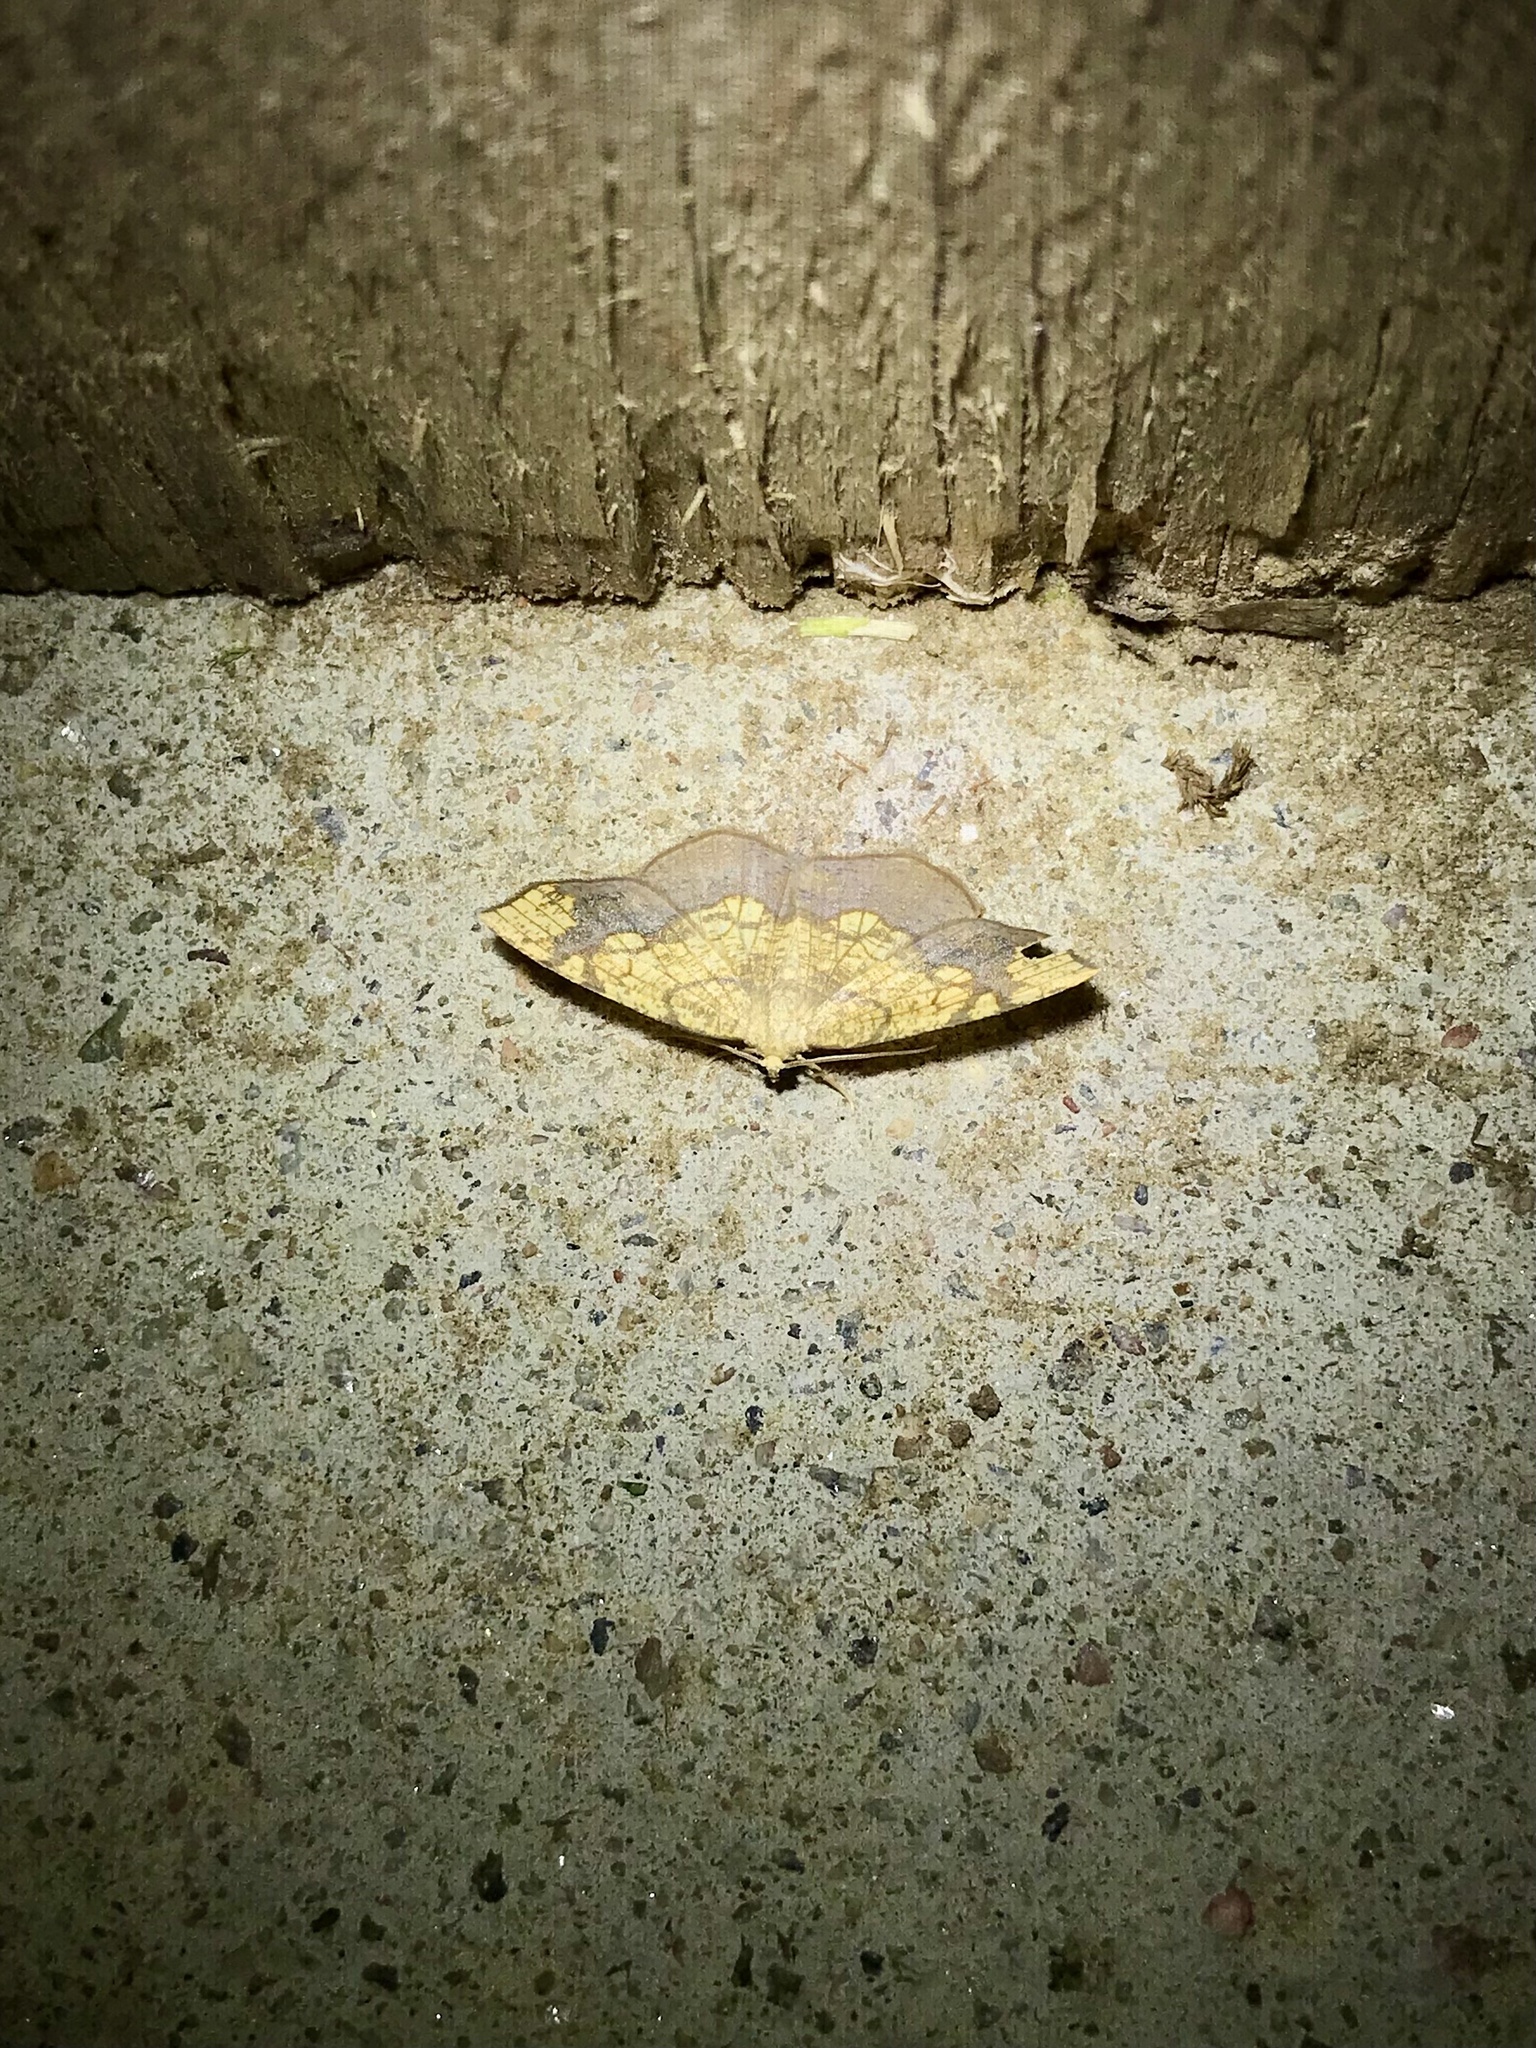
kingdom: Animalia
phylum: Arthropoda
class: Insecta
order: Lepidoptera
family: Geometridae
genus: Nematocampa
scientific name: Nematocampa resistaria
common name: Horned spanworm moth
